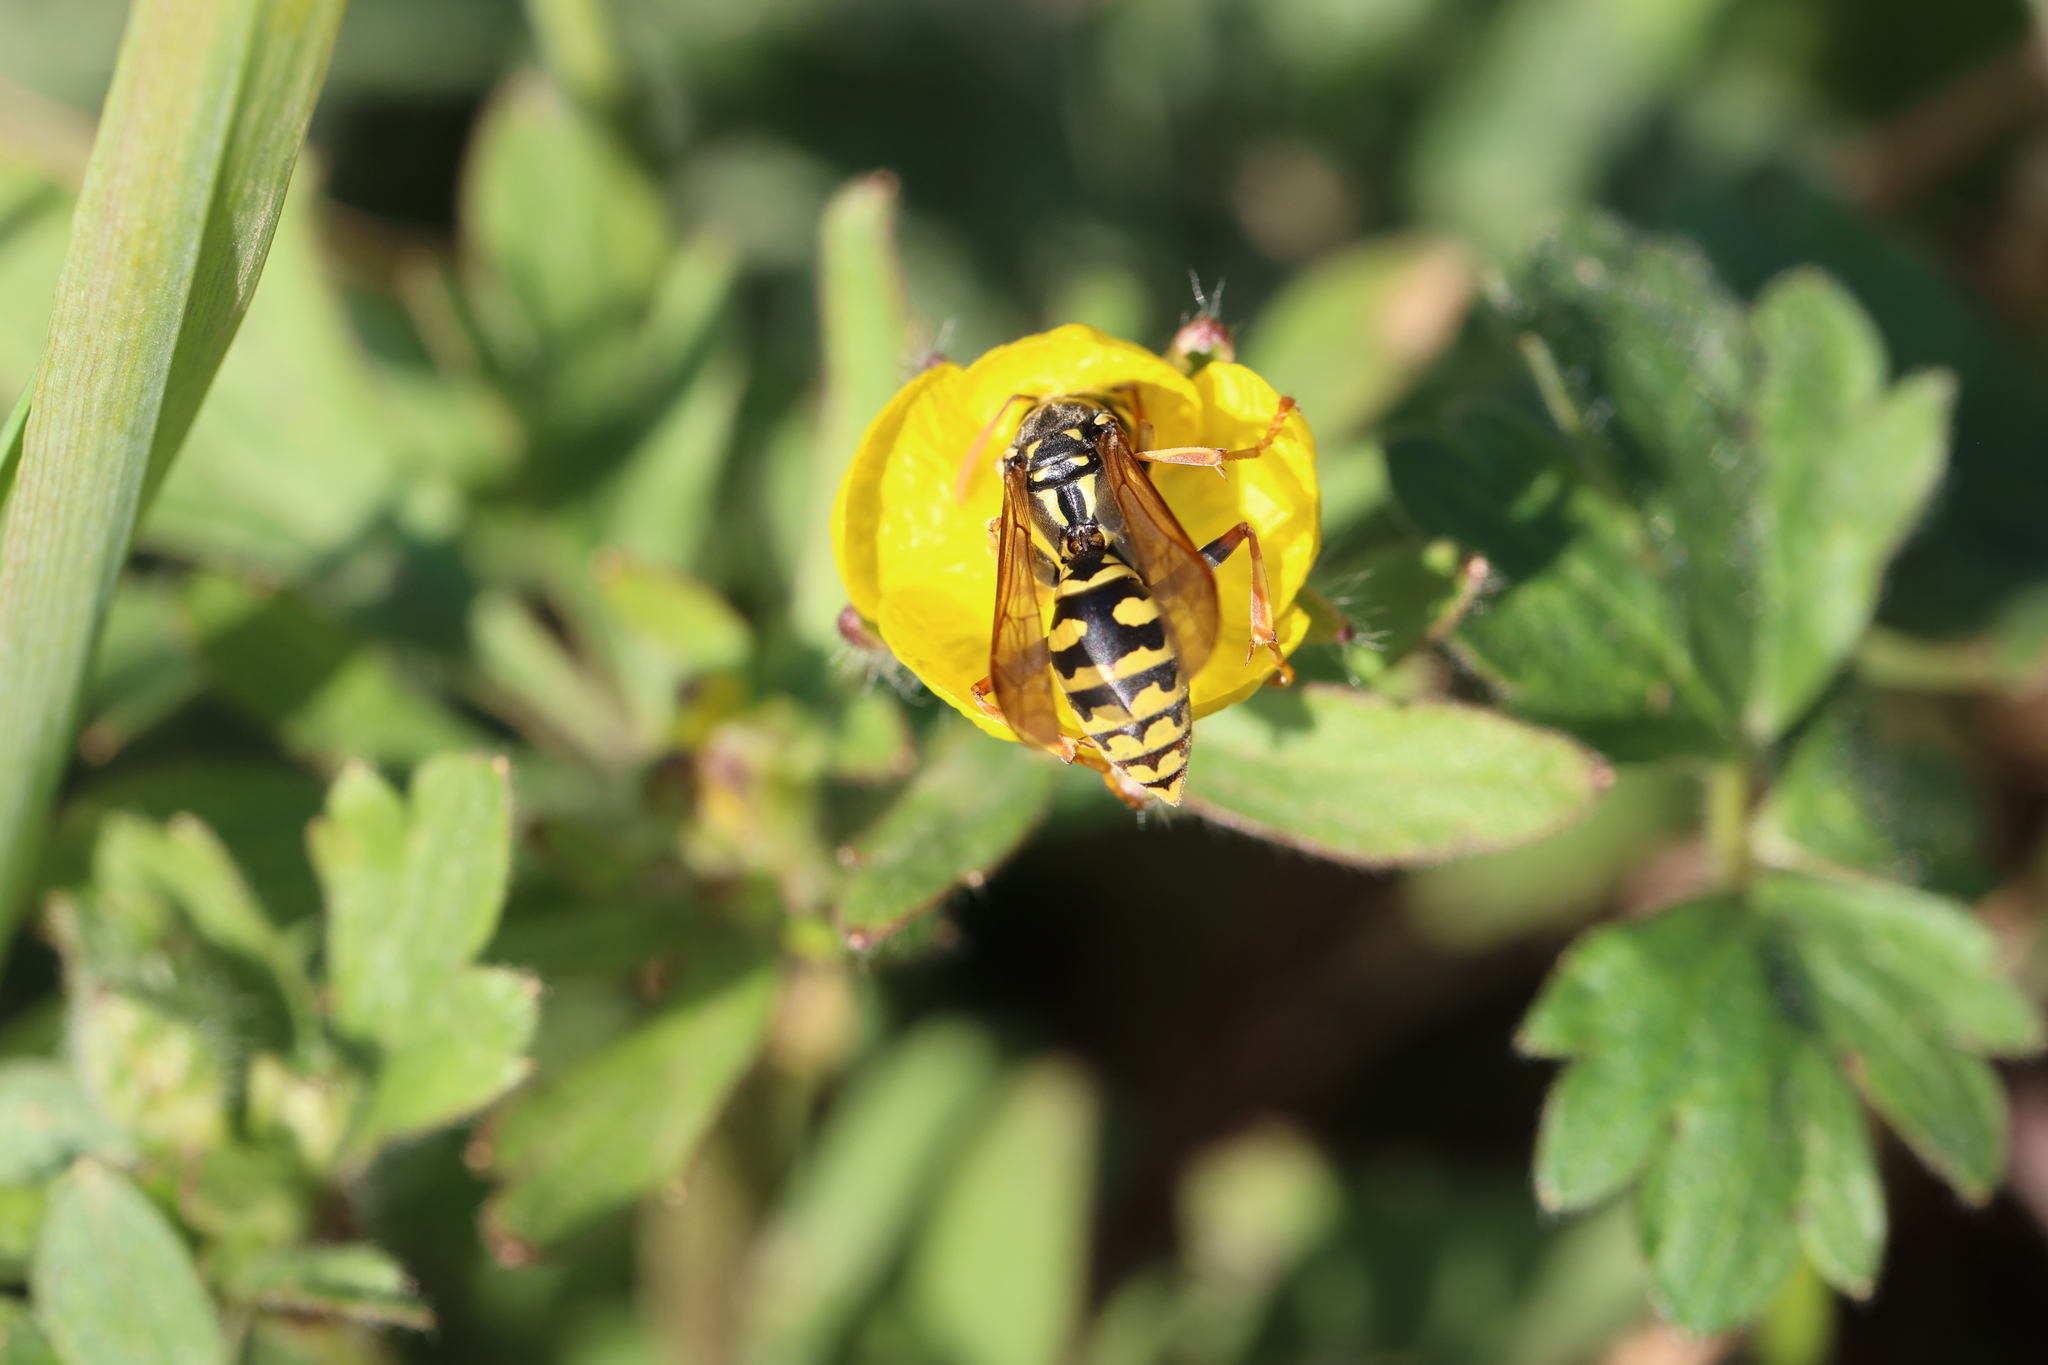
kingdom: Animalia
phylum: Arthropoda
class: Insecta
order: Hymenoptera
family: Eumenidae
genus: Polistes
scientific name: Polistes dominula
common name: Paper wasp
